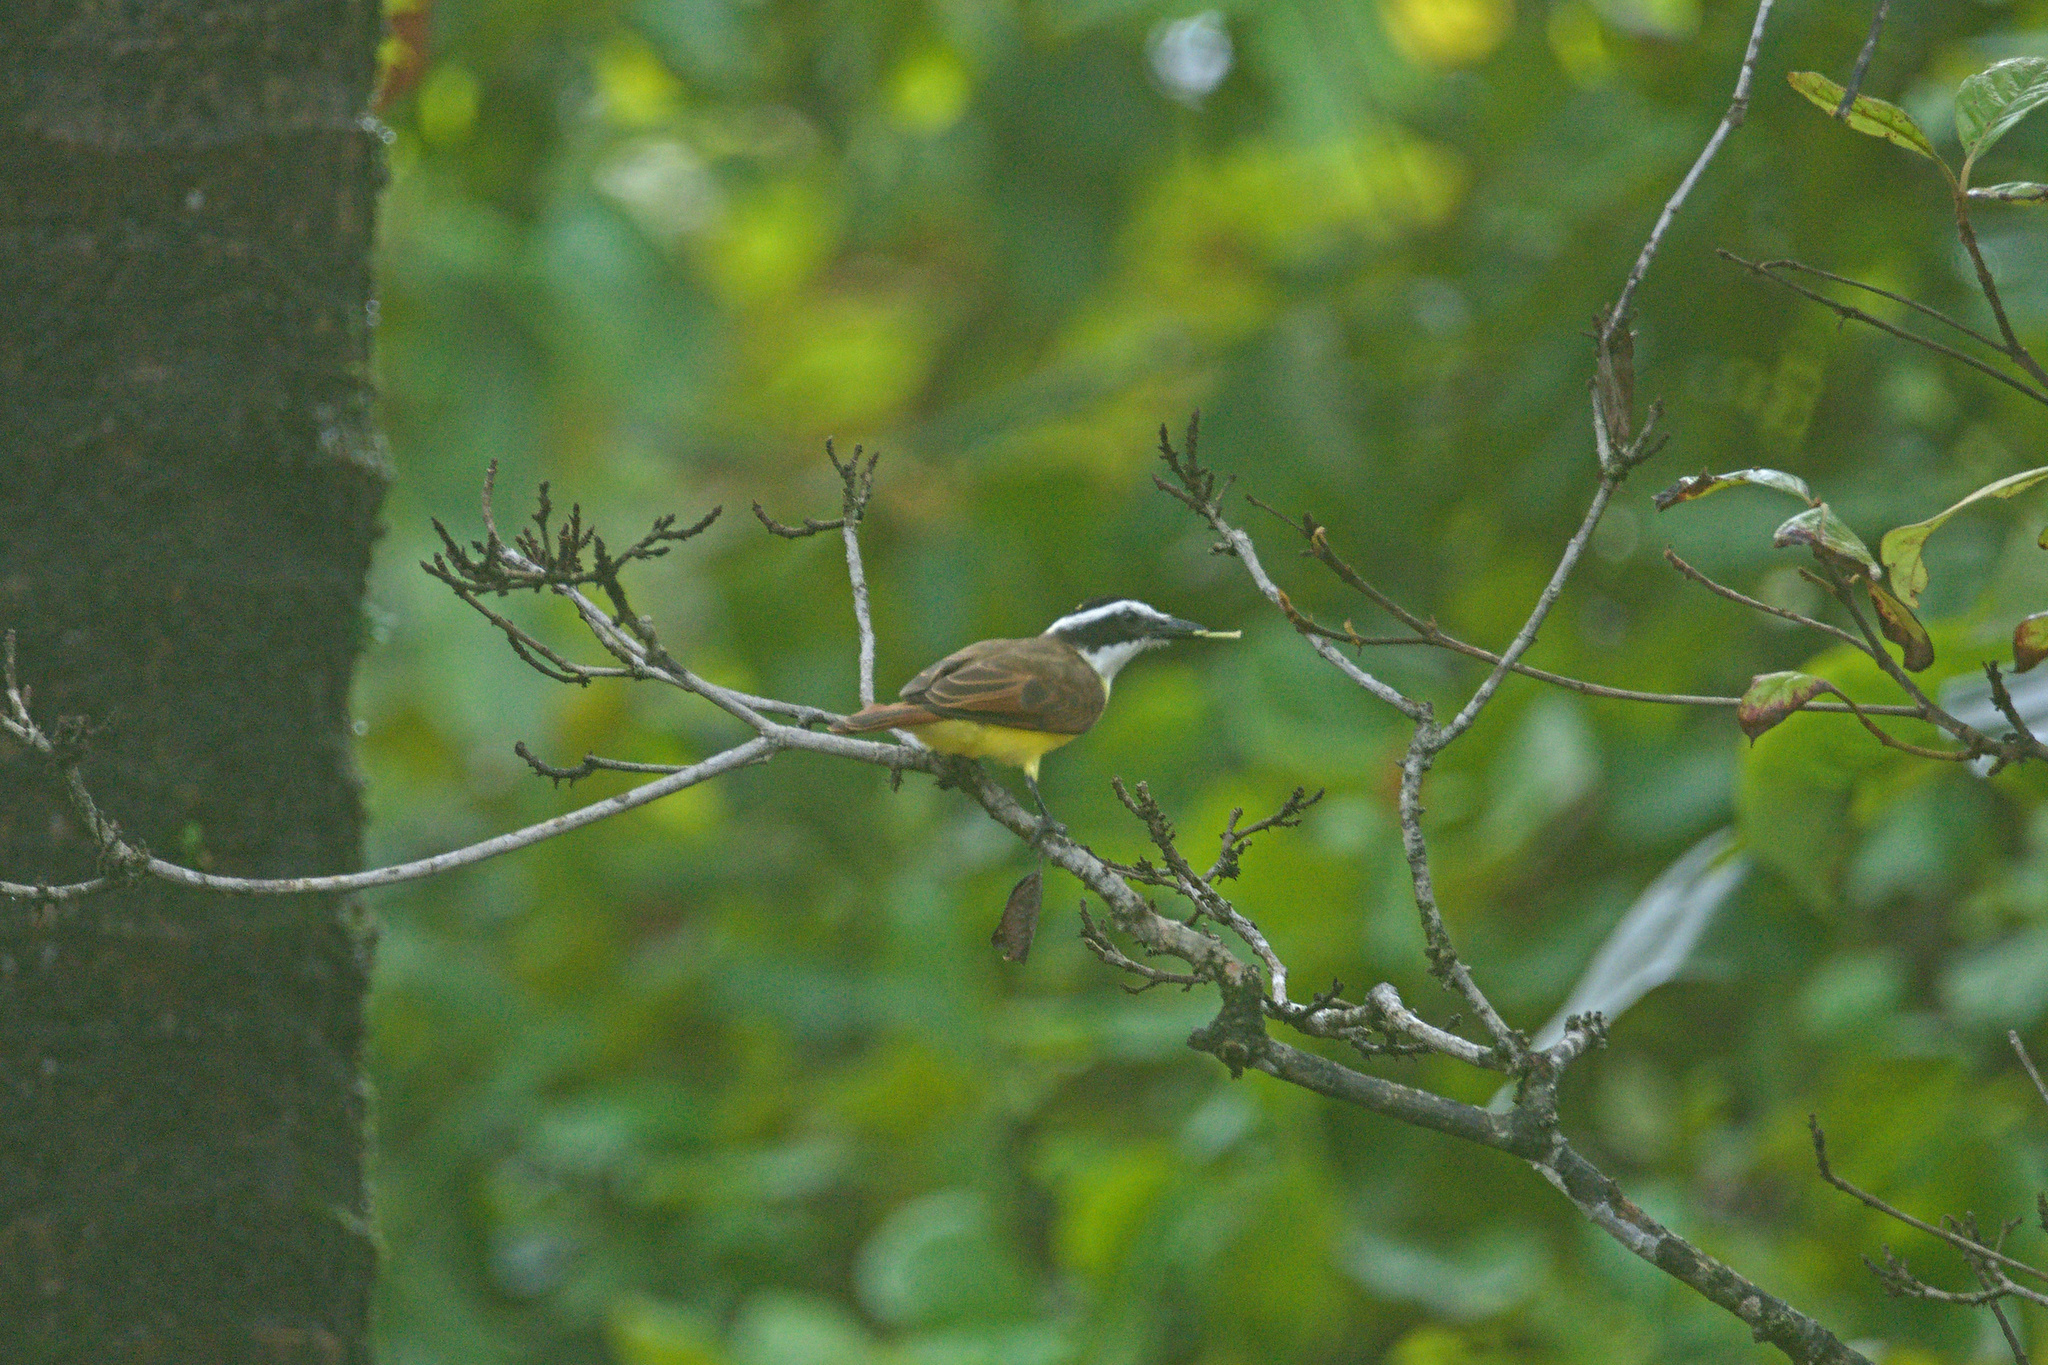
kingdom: Animalia
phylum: Chordata
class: Aves
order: Passeriformes
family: Tyrannidae
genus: Pitangus
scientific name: Pitangus sulphuratus
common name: Great kiskadee
